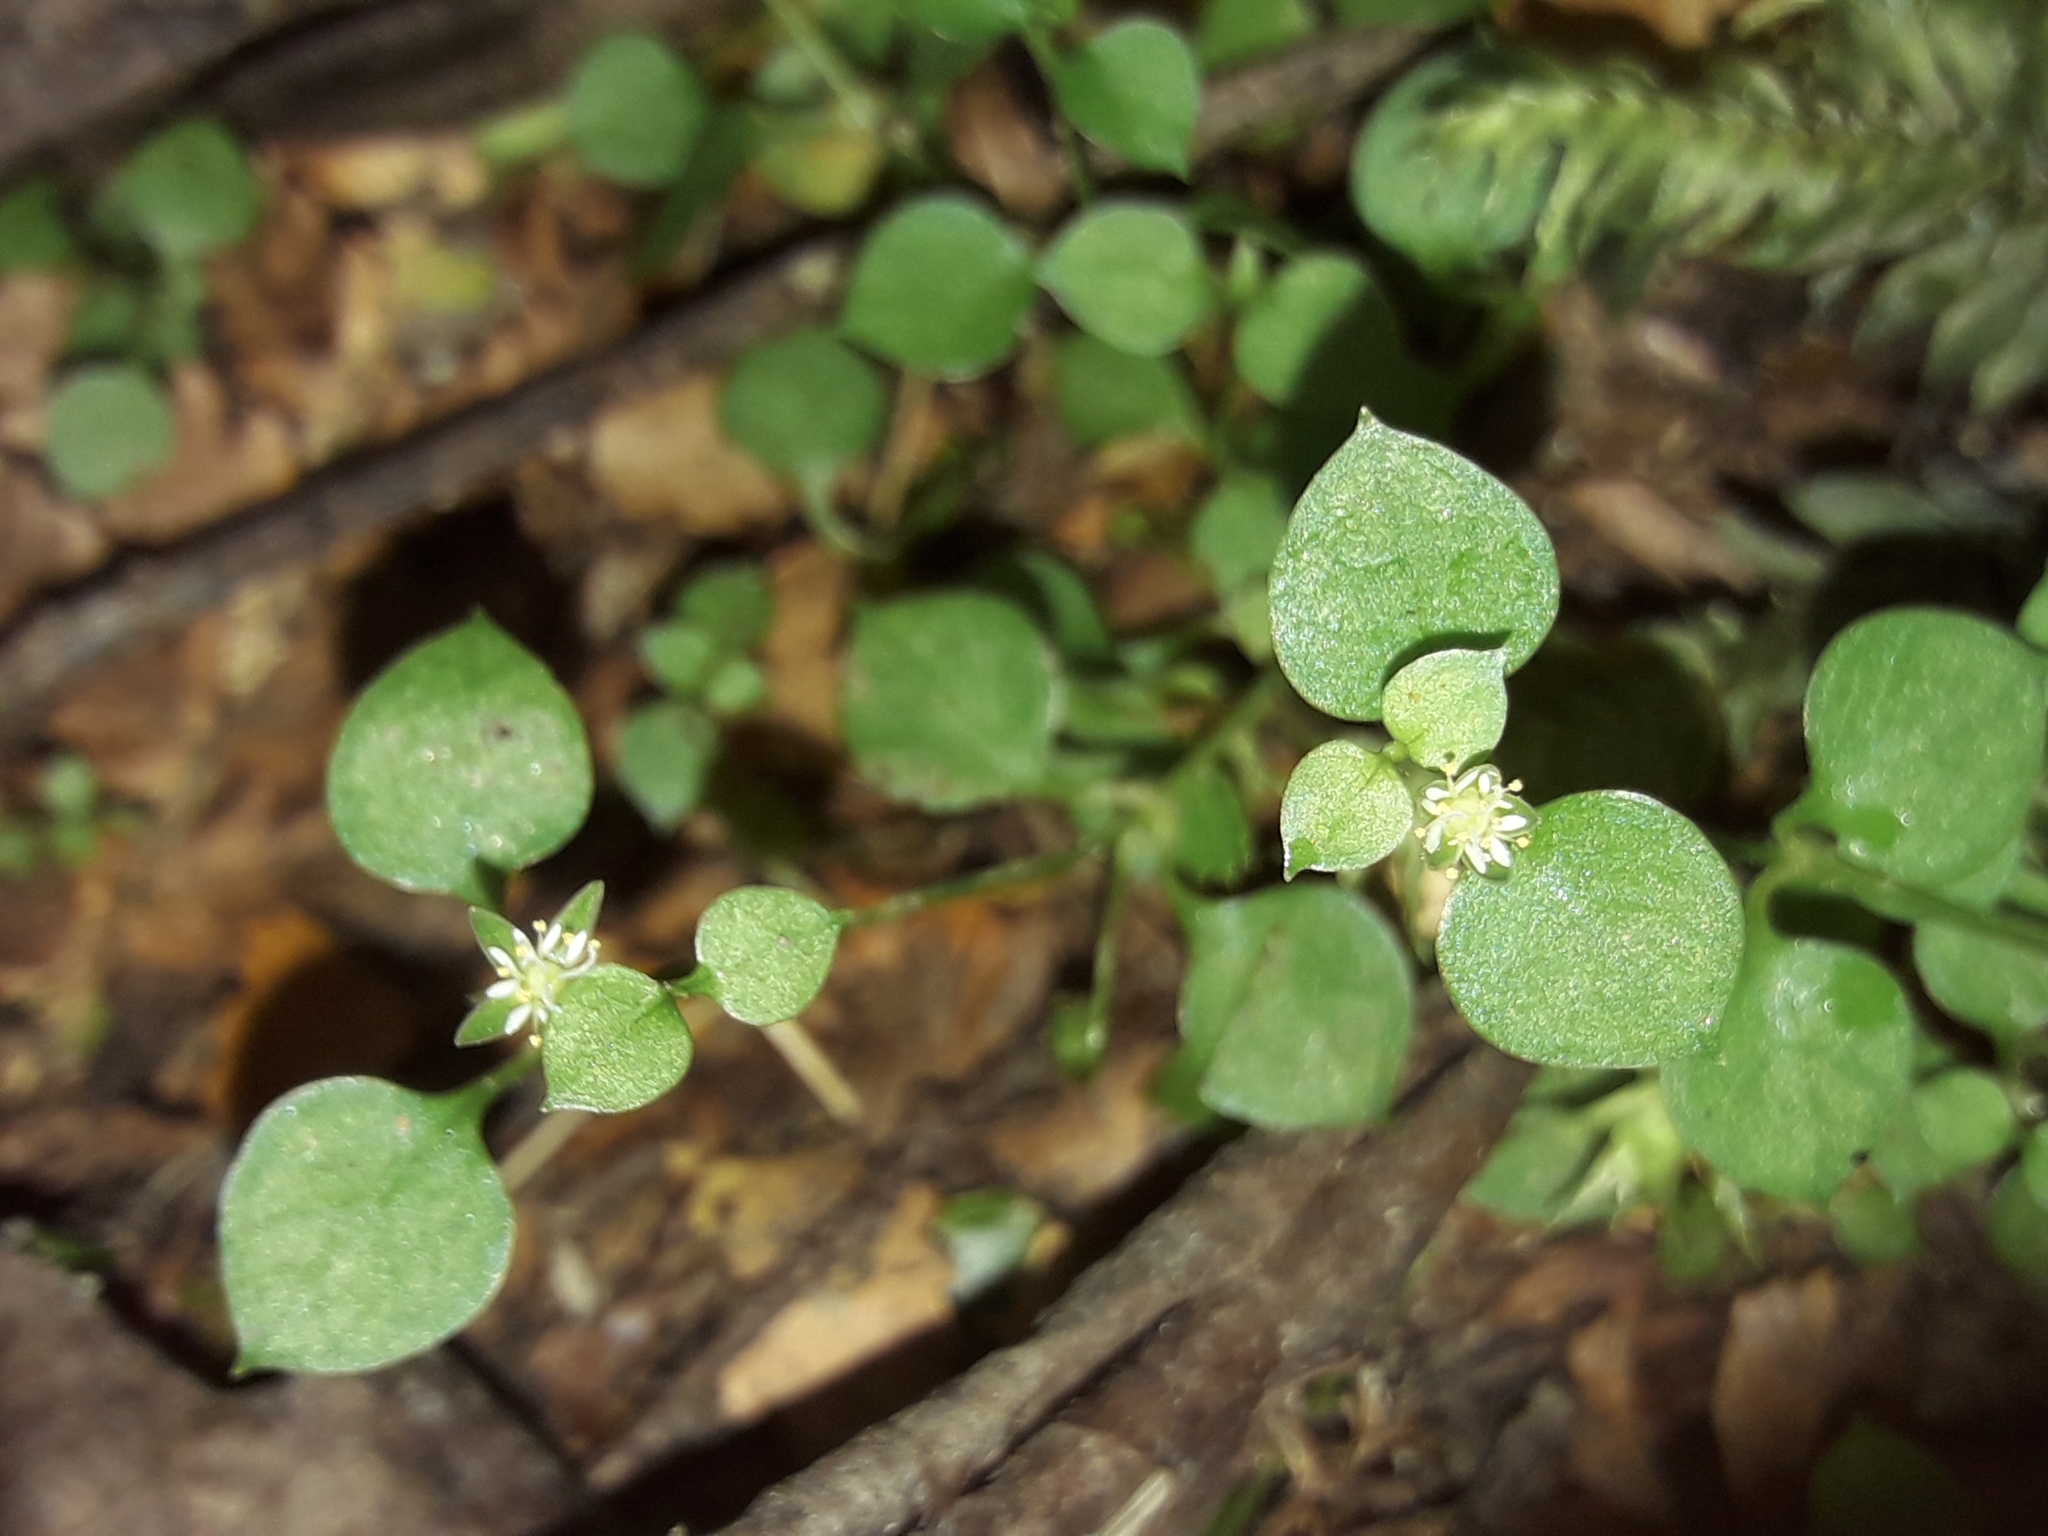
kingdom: Plantae
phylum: Tracheophyta
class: Magnoliopsida
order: Caryophyllales
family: Caryophyllaceae
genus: Stellaria
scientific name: Stellaria parviflora
